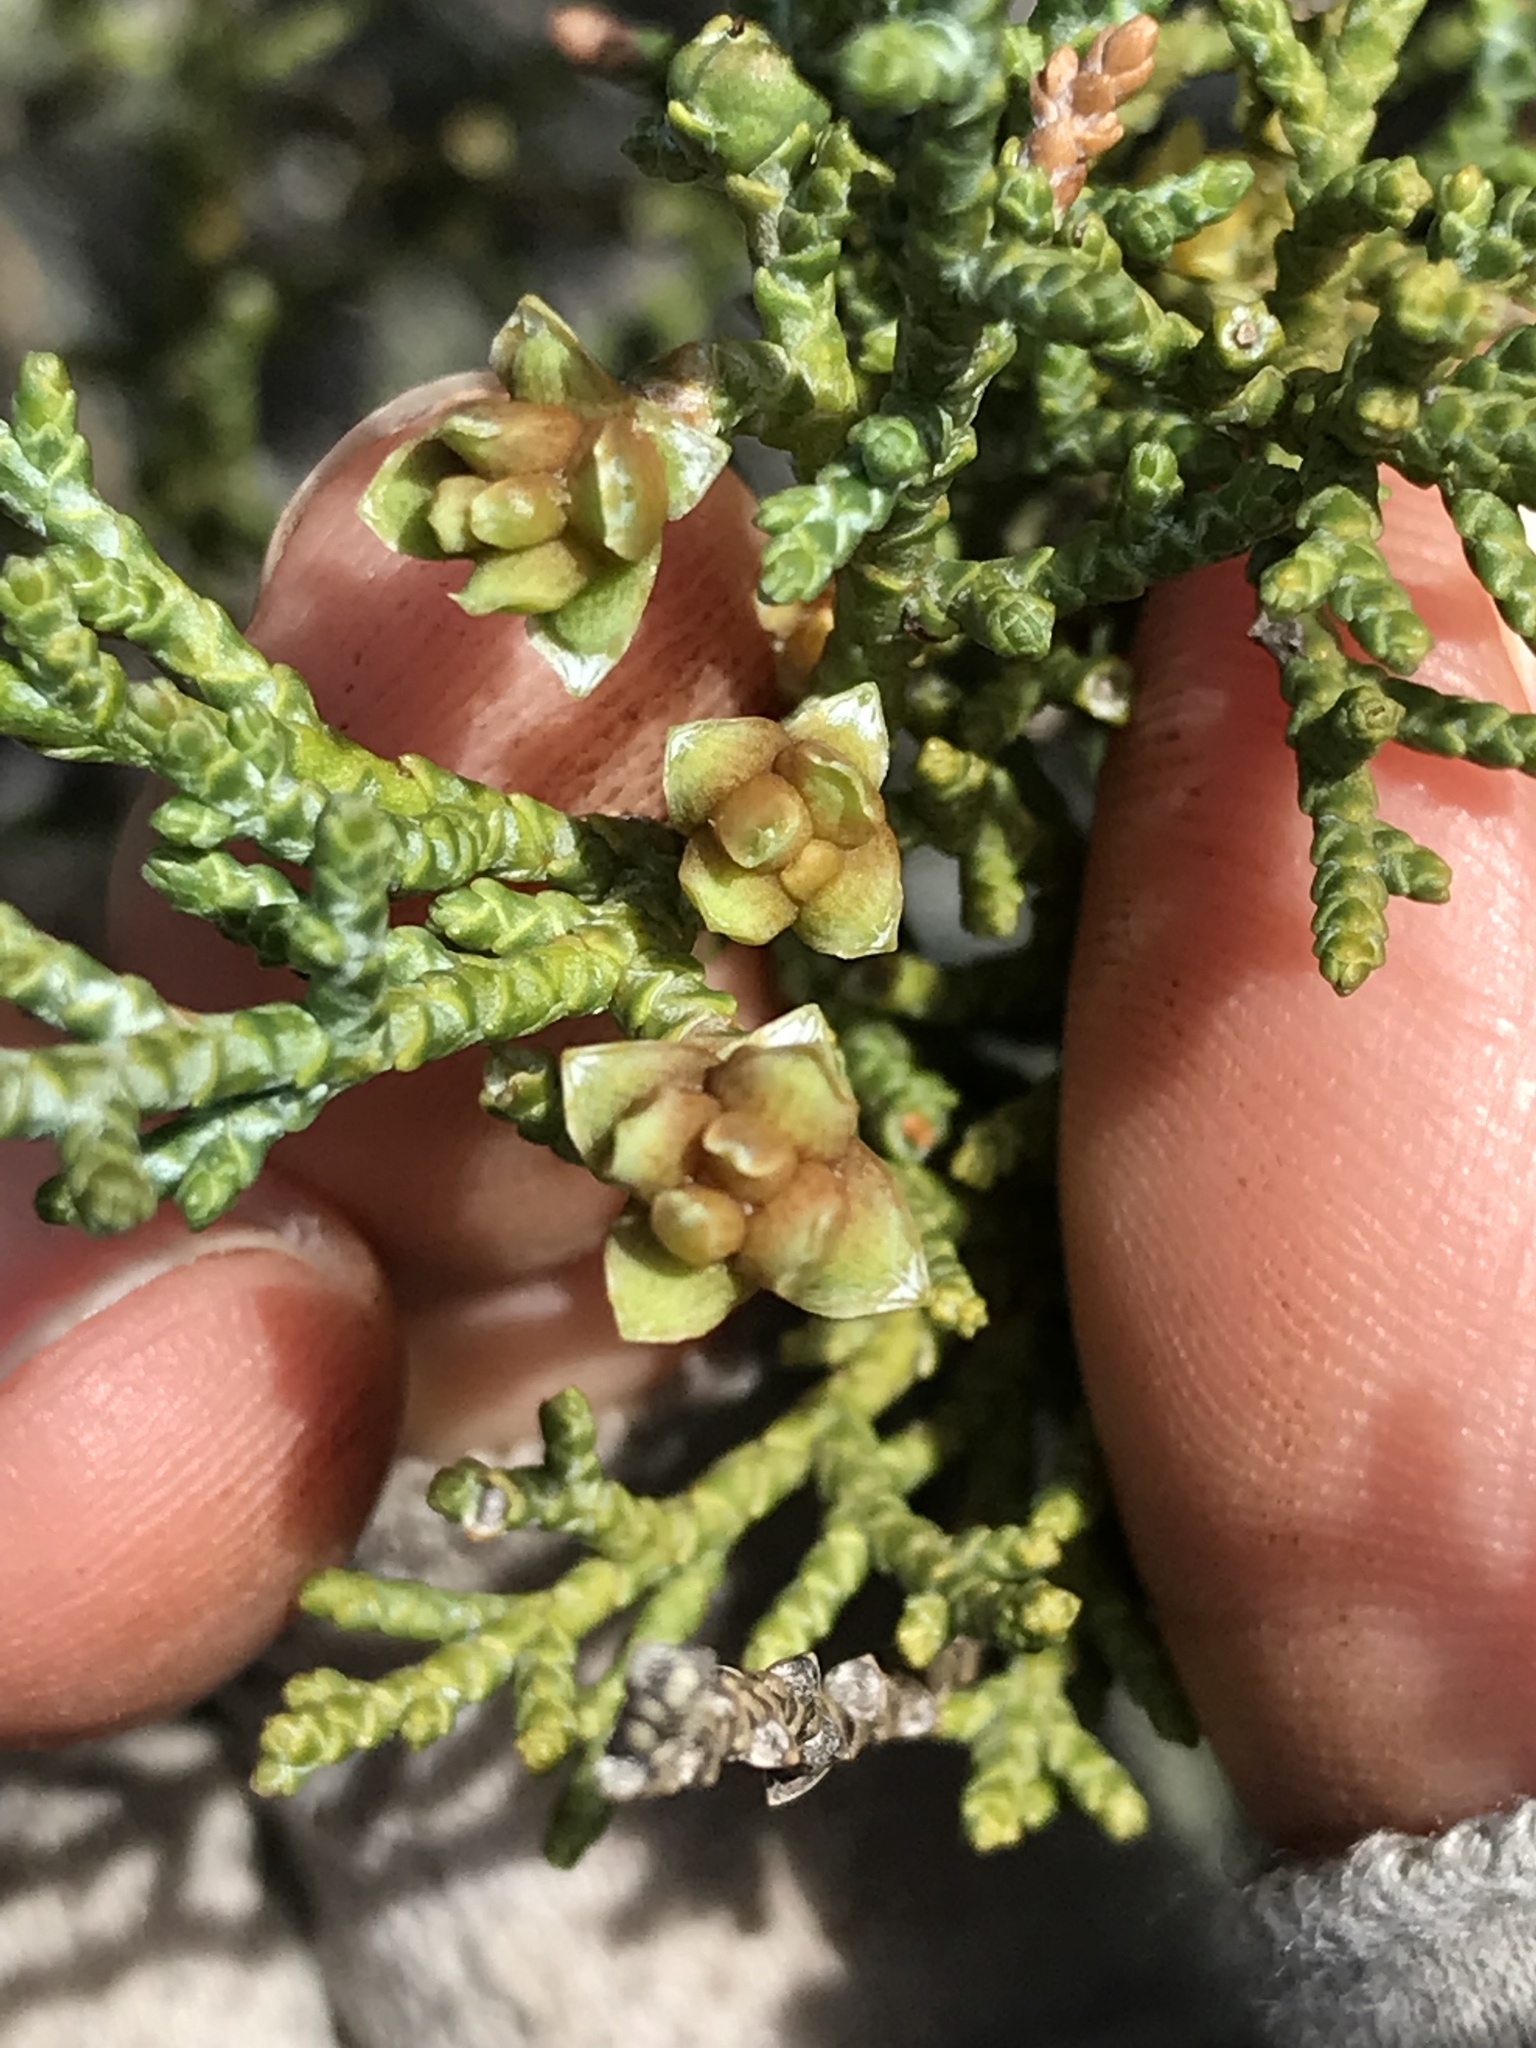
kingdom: Animalia
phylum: Arthropoda
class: Insecta
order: Diptera
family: Cecidomyiidae
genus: Chamaediplosis
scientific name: Chamaediplosis nootkatensis
